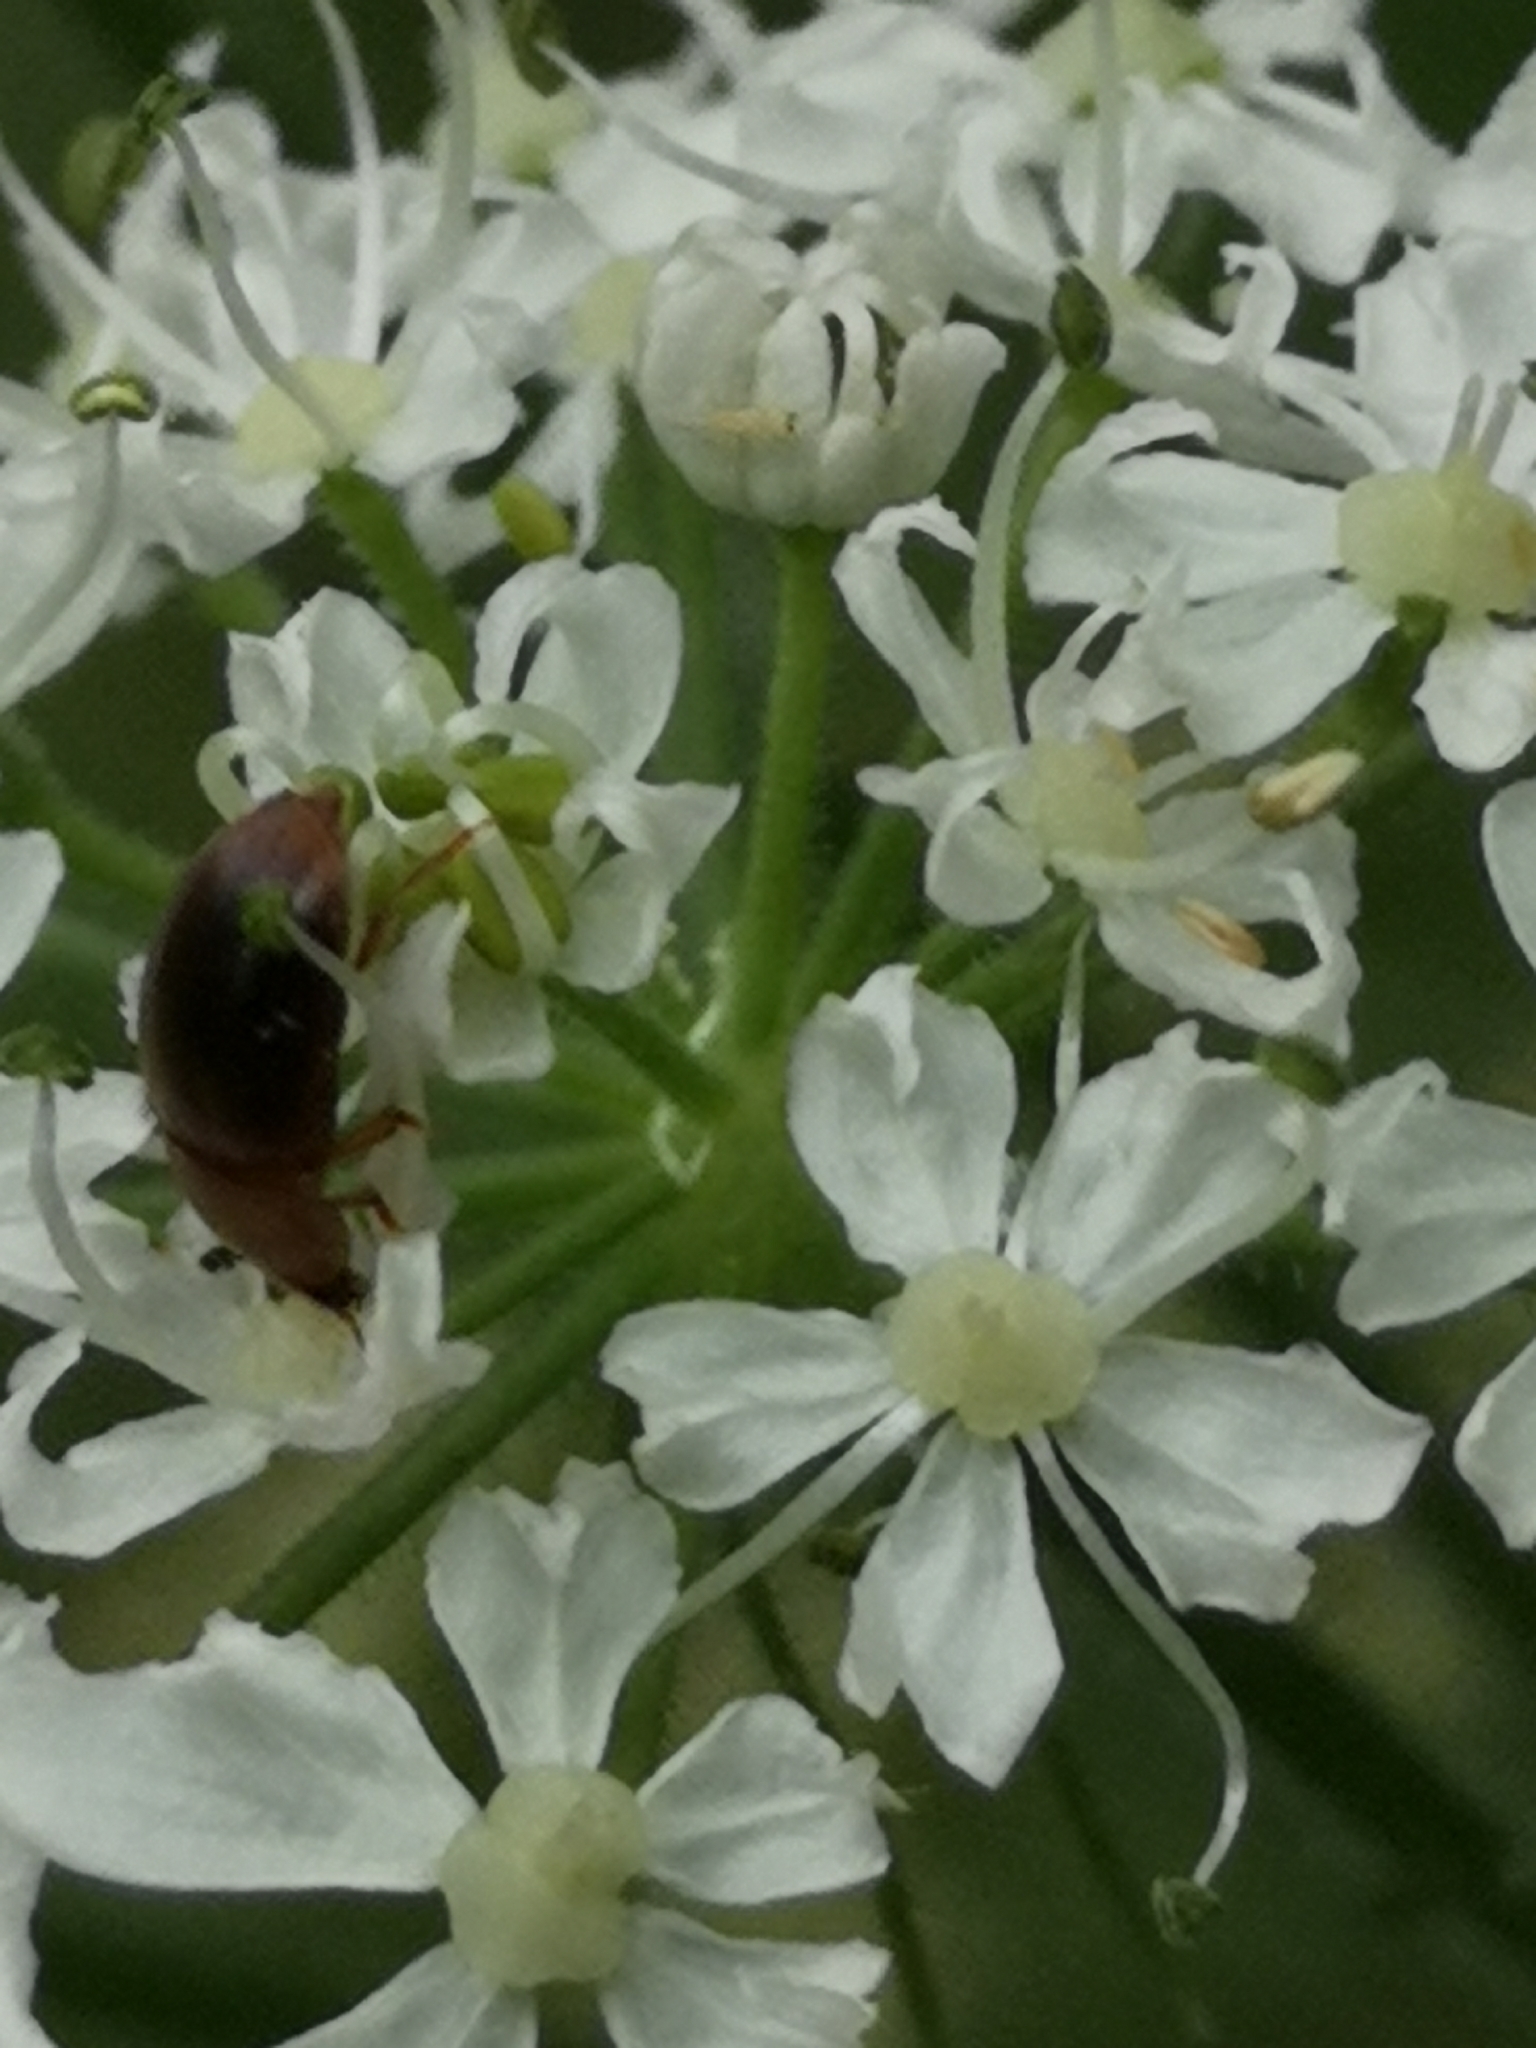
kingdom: Animalia
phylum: Arthropoda
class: Insecta
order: Coleoptera
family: Nitidulidae
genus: Cychramus
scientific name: Cychramus luteus
